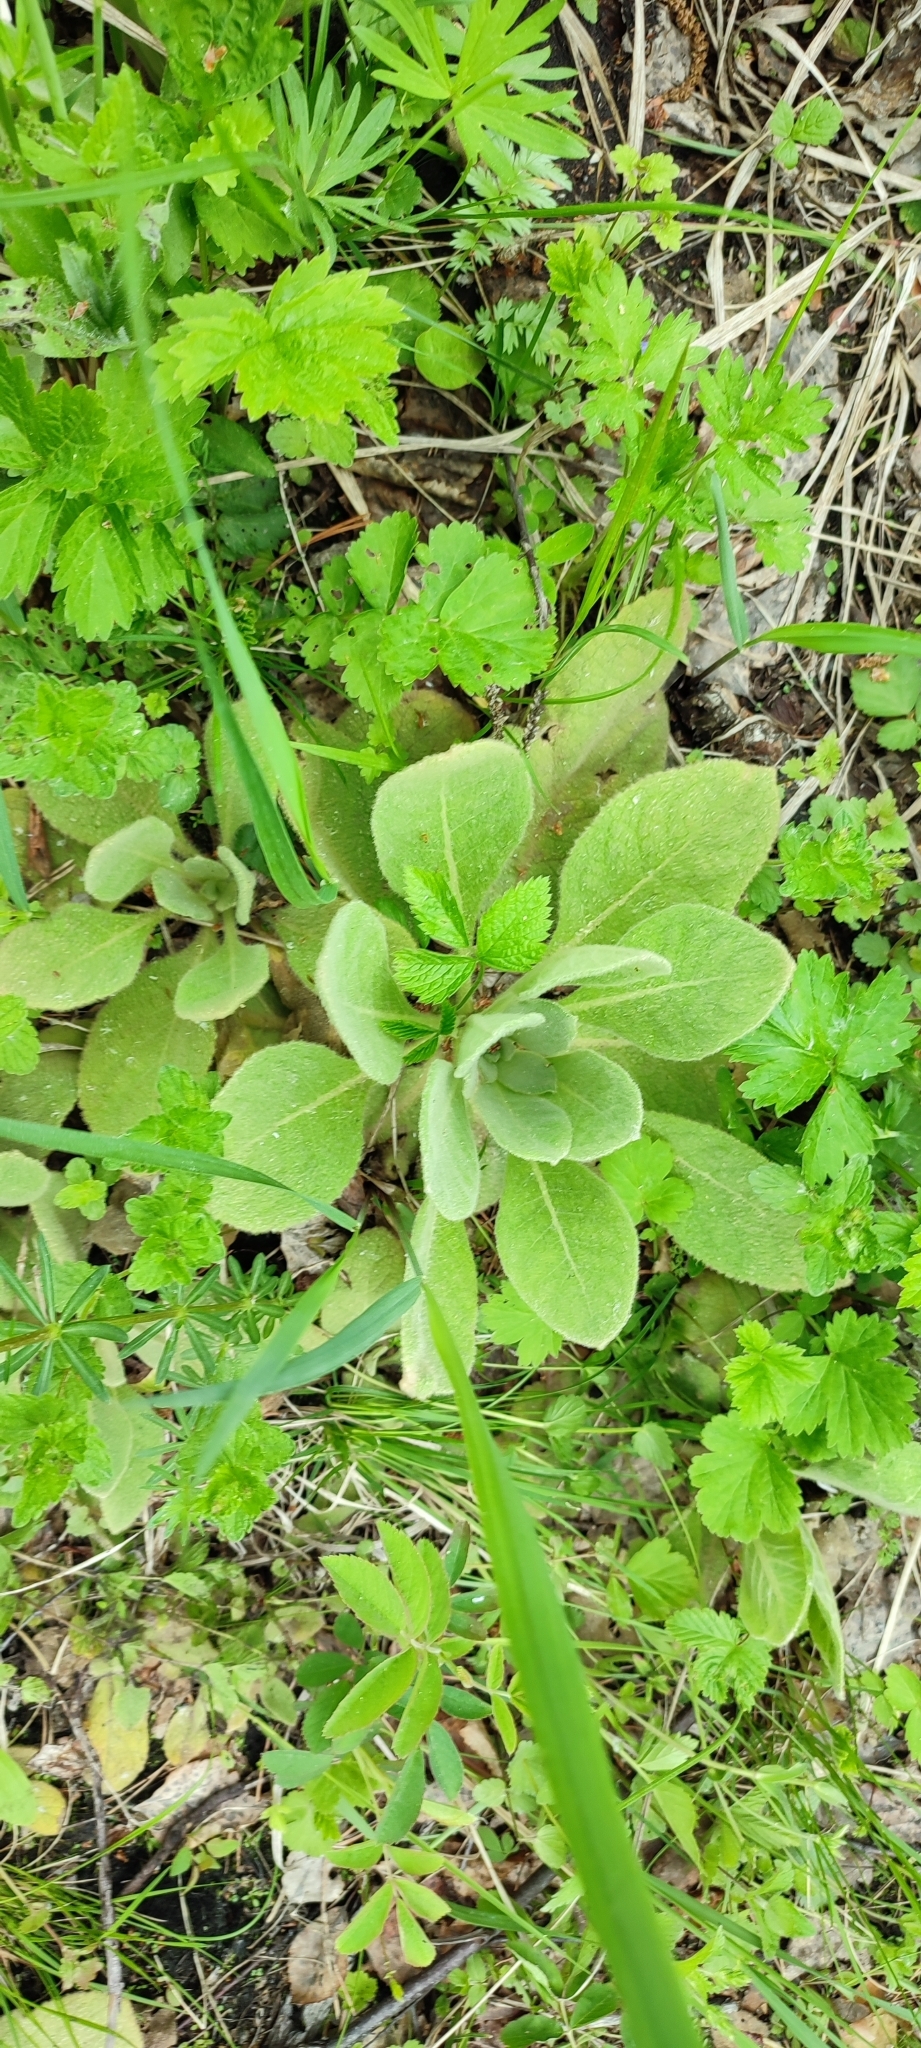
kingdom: Plantae
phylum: Tracheophyta
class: Magnoliopsida
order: Lamiales
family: Scrophulariaceae
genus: Verbascum
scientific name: Verbascum thapsus
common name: Common mullein
